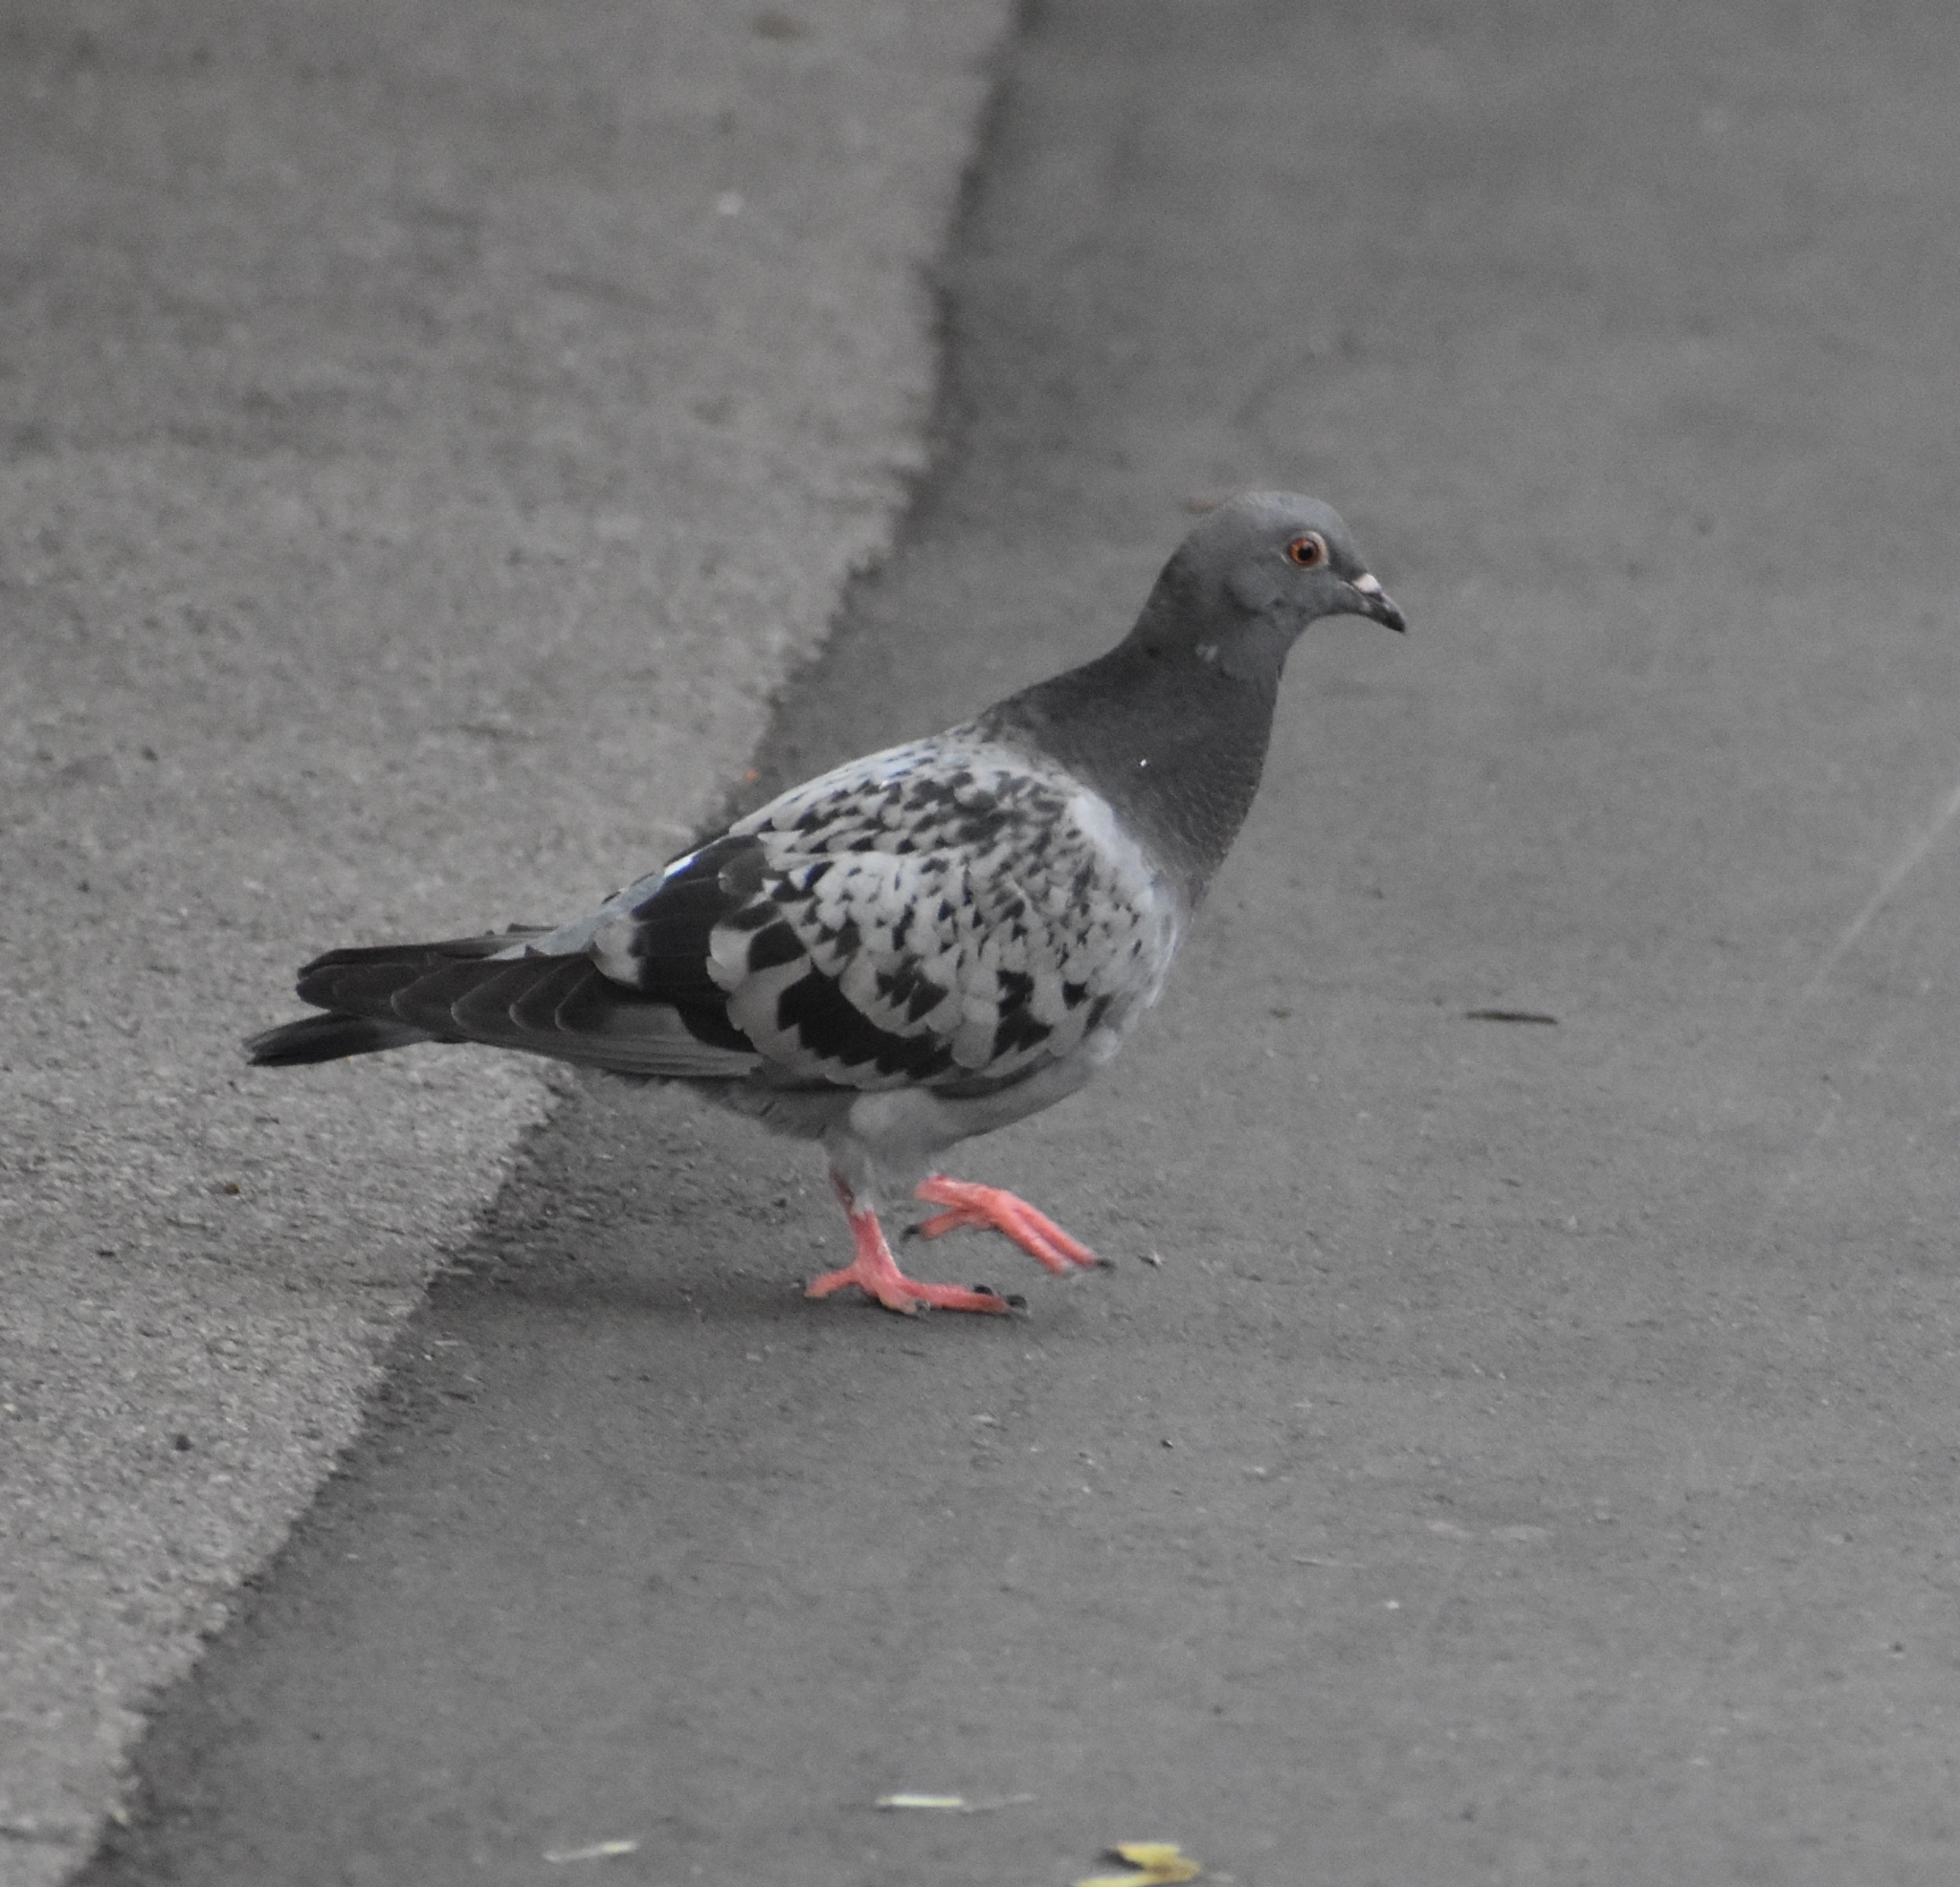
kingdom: Animalia
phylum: Chordata
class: Aves
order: Columbiformes
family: Columbidae
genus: Columba
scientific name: Columba livia
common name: Rock pigeon
